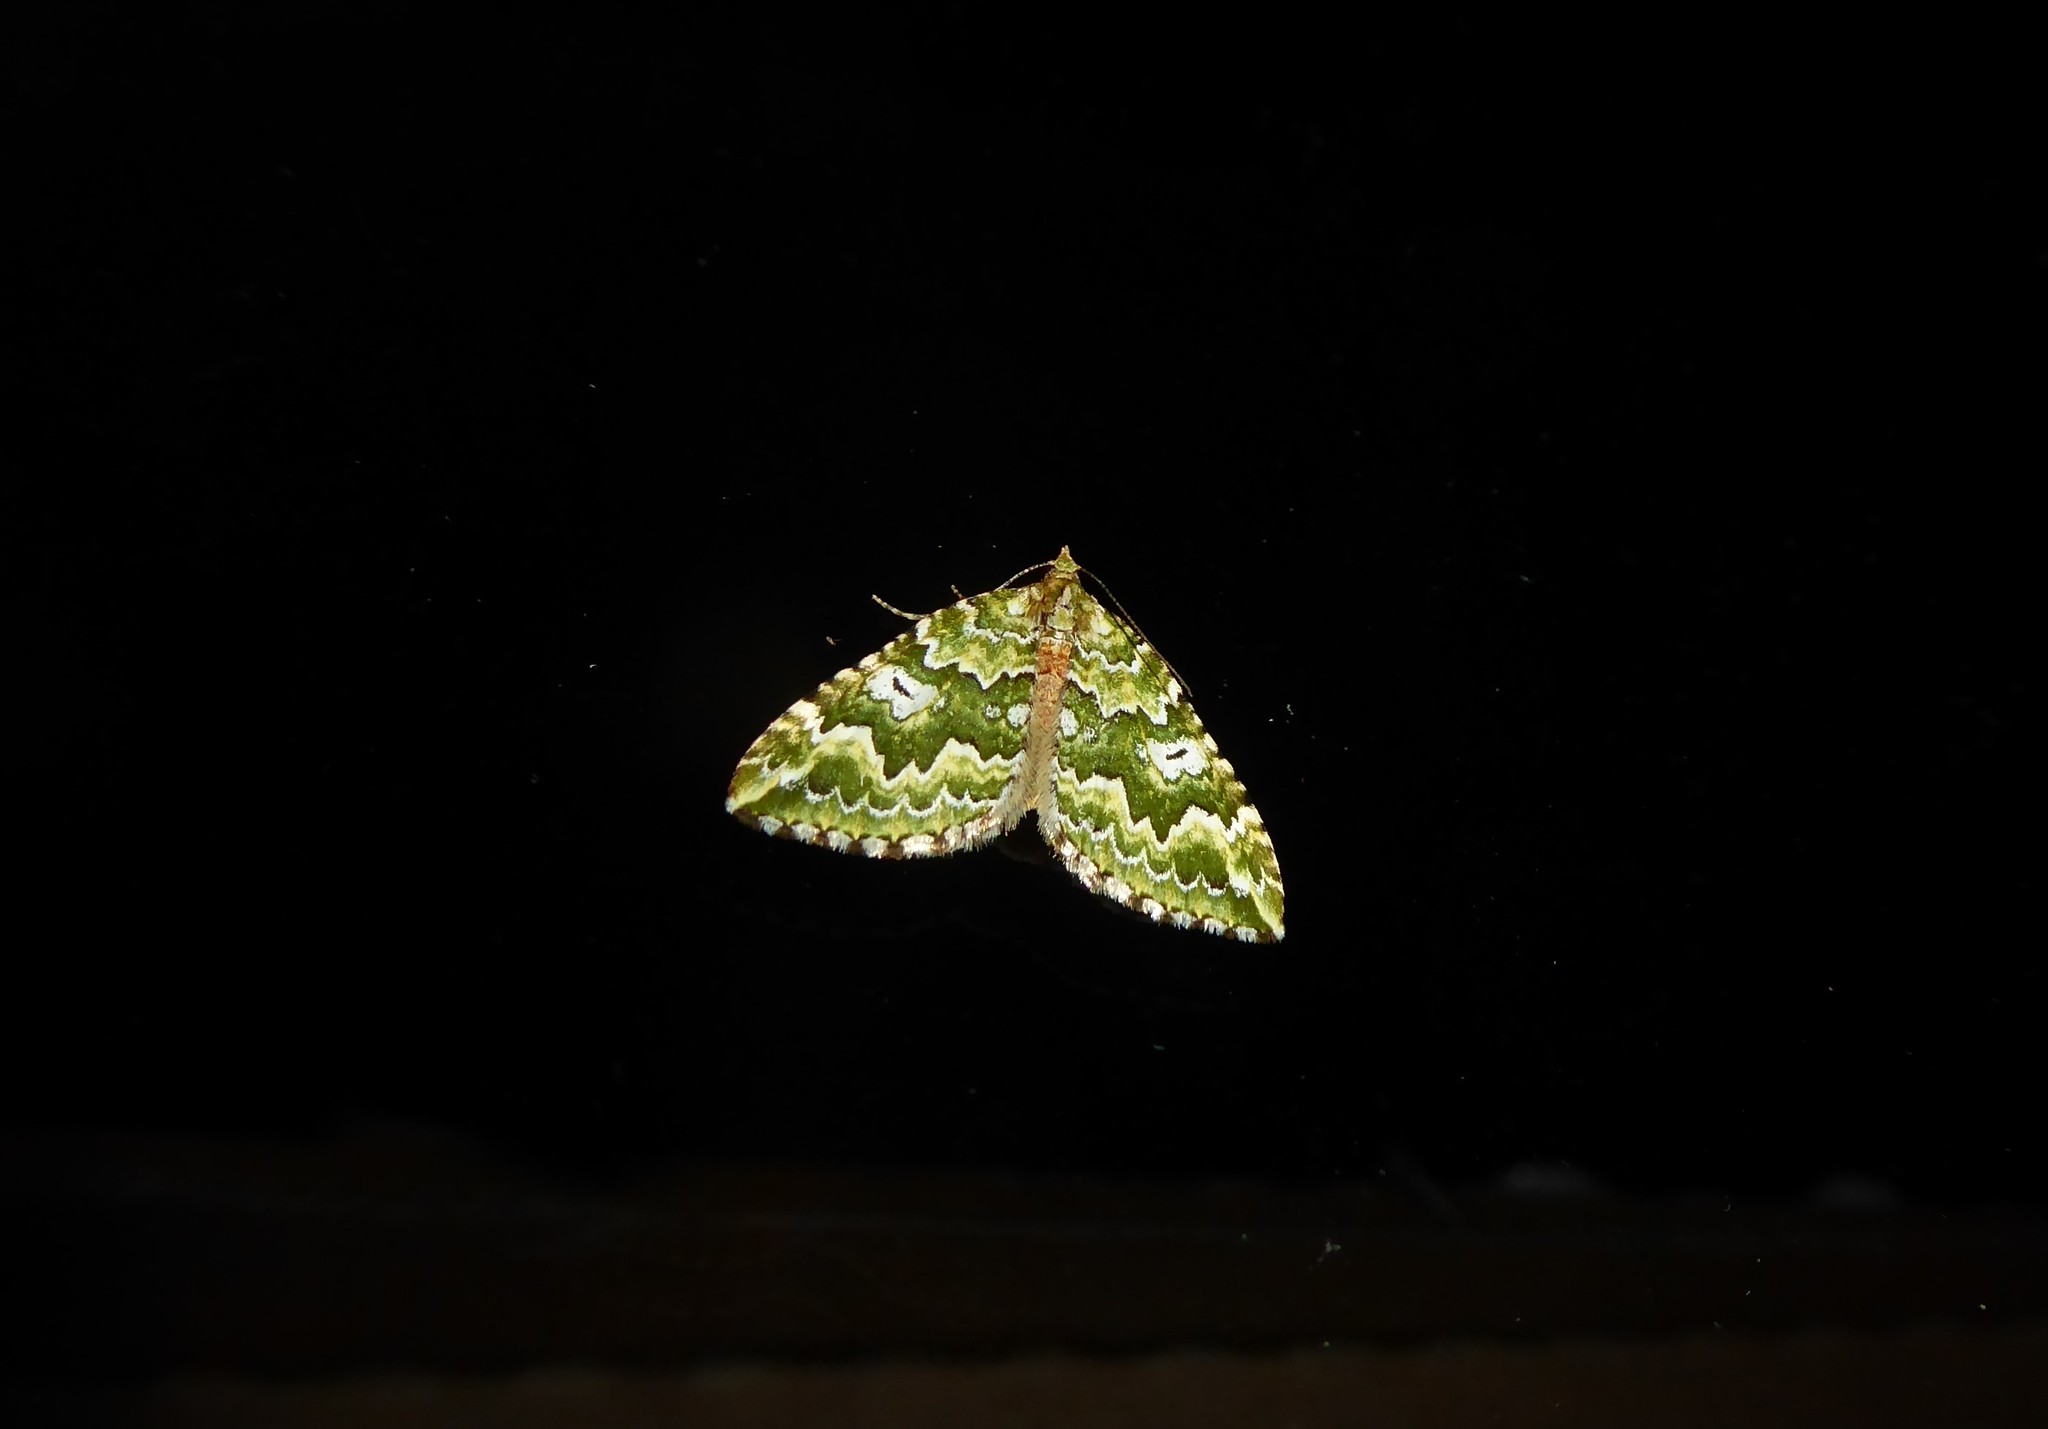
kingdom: Animalia
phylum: Arthropoda
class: Insecta
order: Lepidoptera
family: Geometridae
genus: Asaphodes
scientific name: Asaphodes beata
